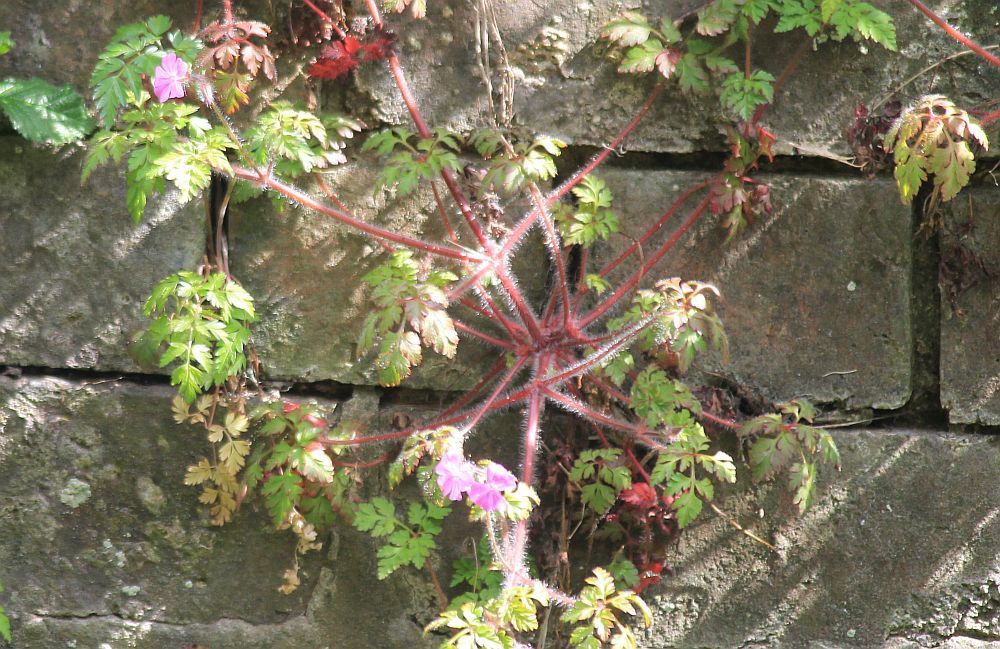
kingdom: Plantae
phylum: Tracheophyta
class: Magnoliopsida
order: Geraniales
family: Geraniaceae
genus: Geranium
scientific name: Geranium robertianum
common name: Herb-robert
